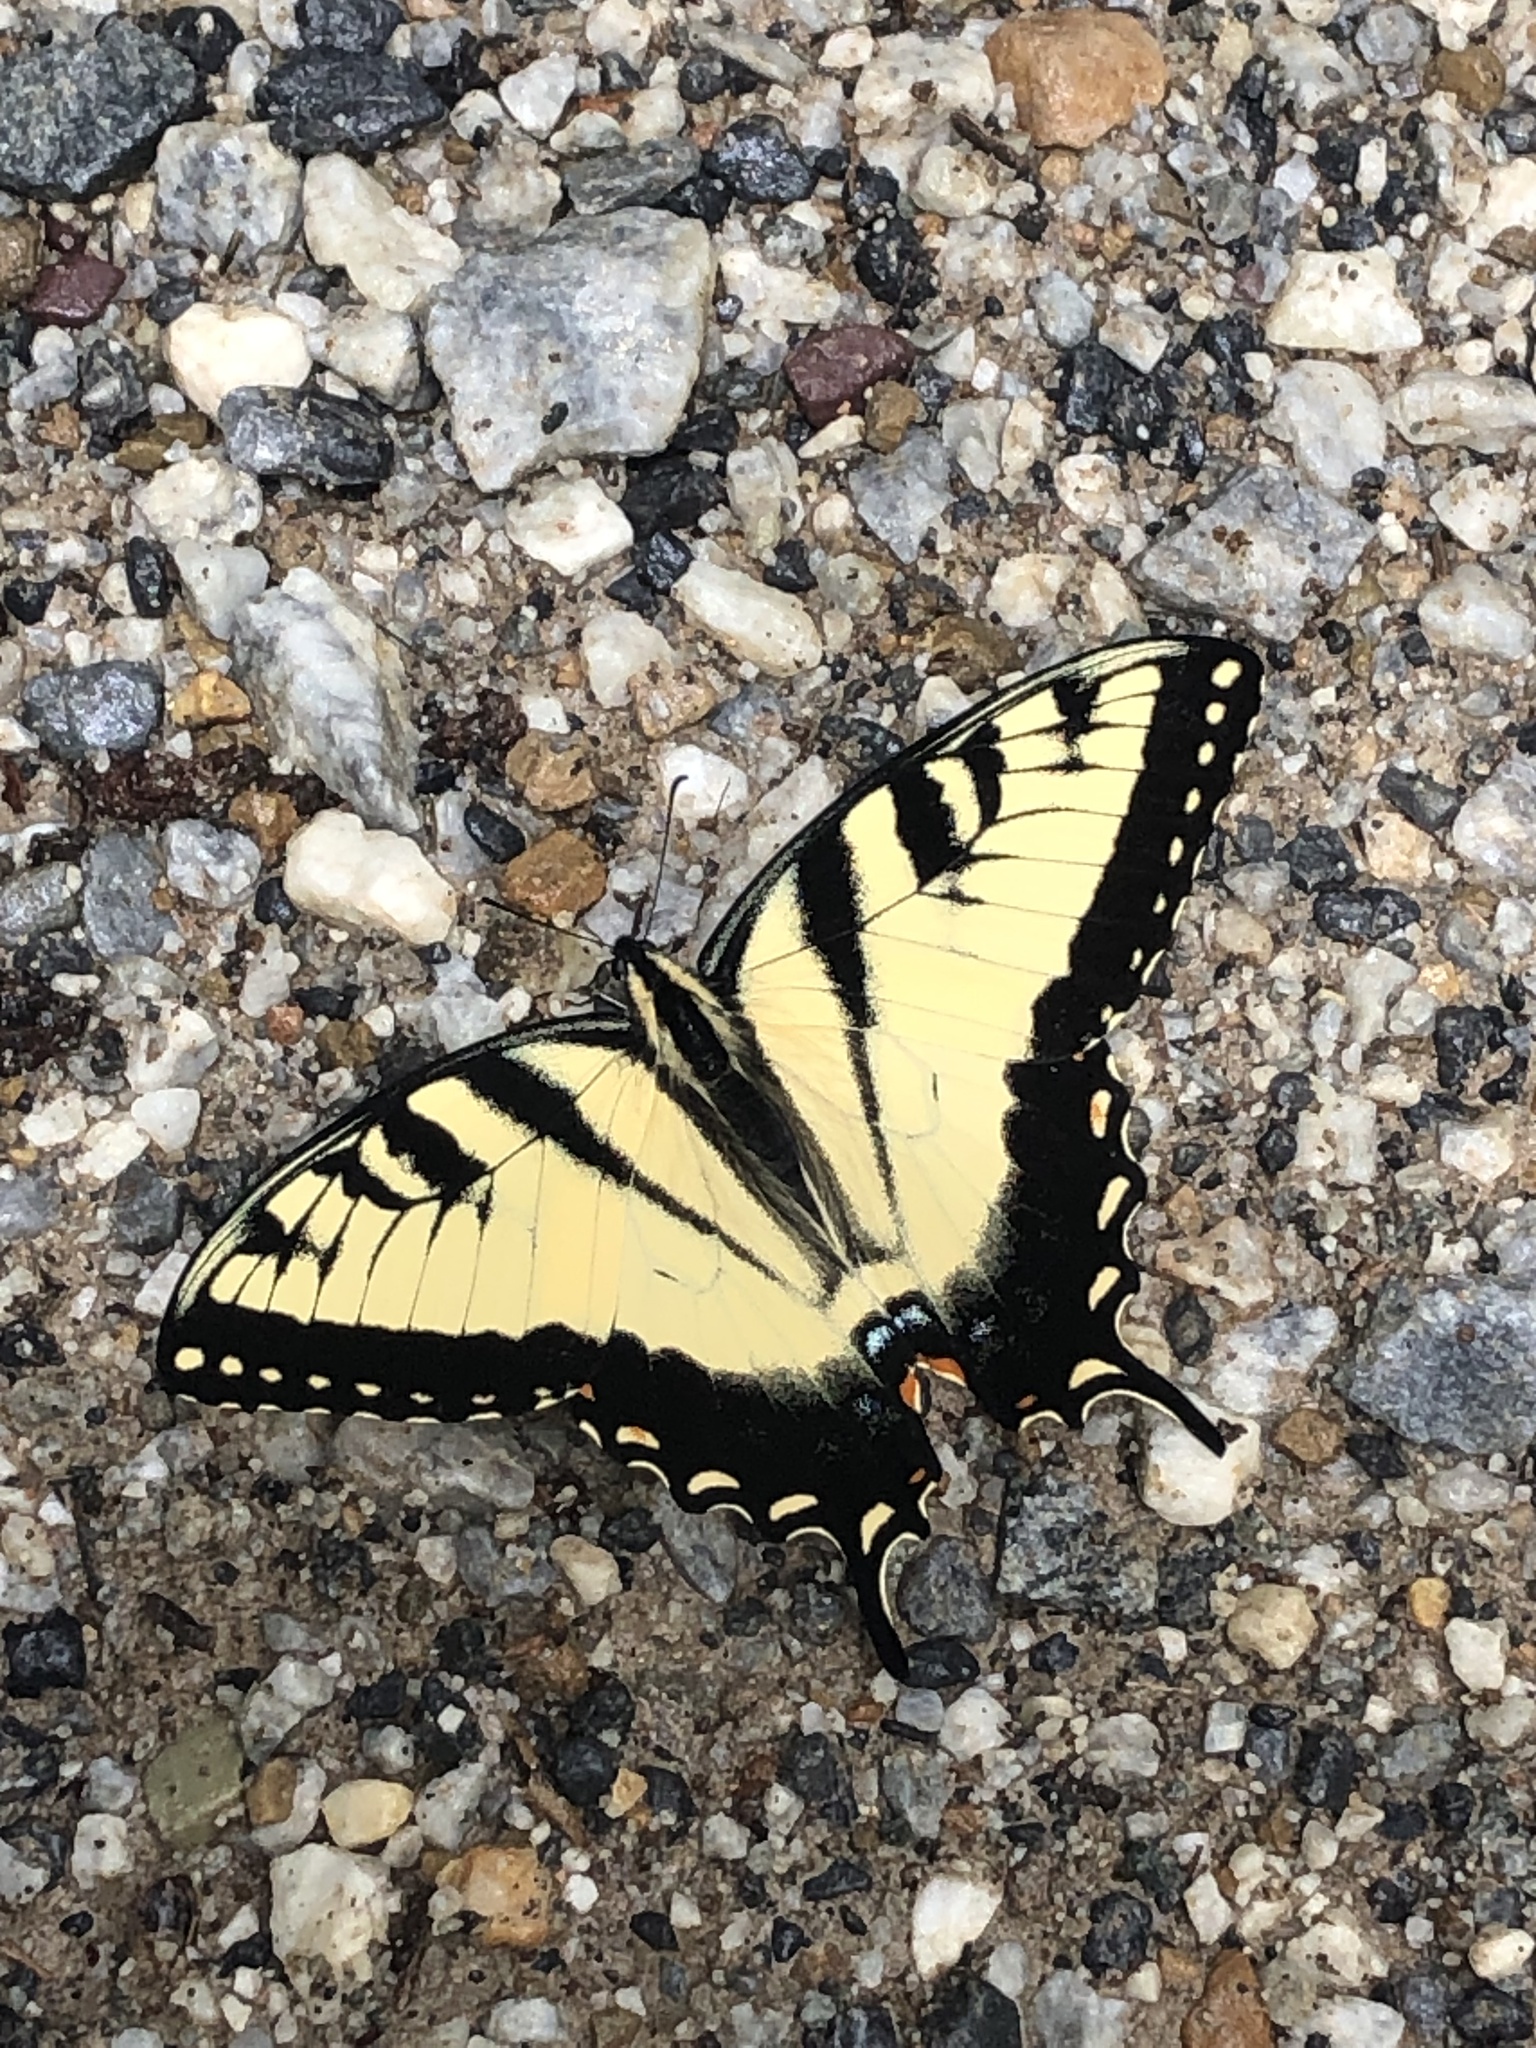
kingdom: Animalia
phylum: Arthropoda
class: Insecta
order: Lepidoptera
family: Papilionidae
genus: Papilio
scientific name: Papilio glaucus
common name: Tiger swallowtail
